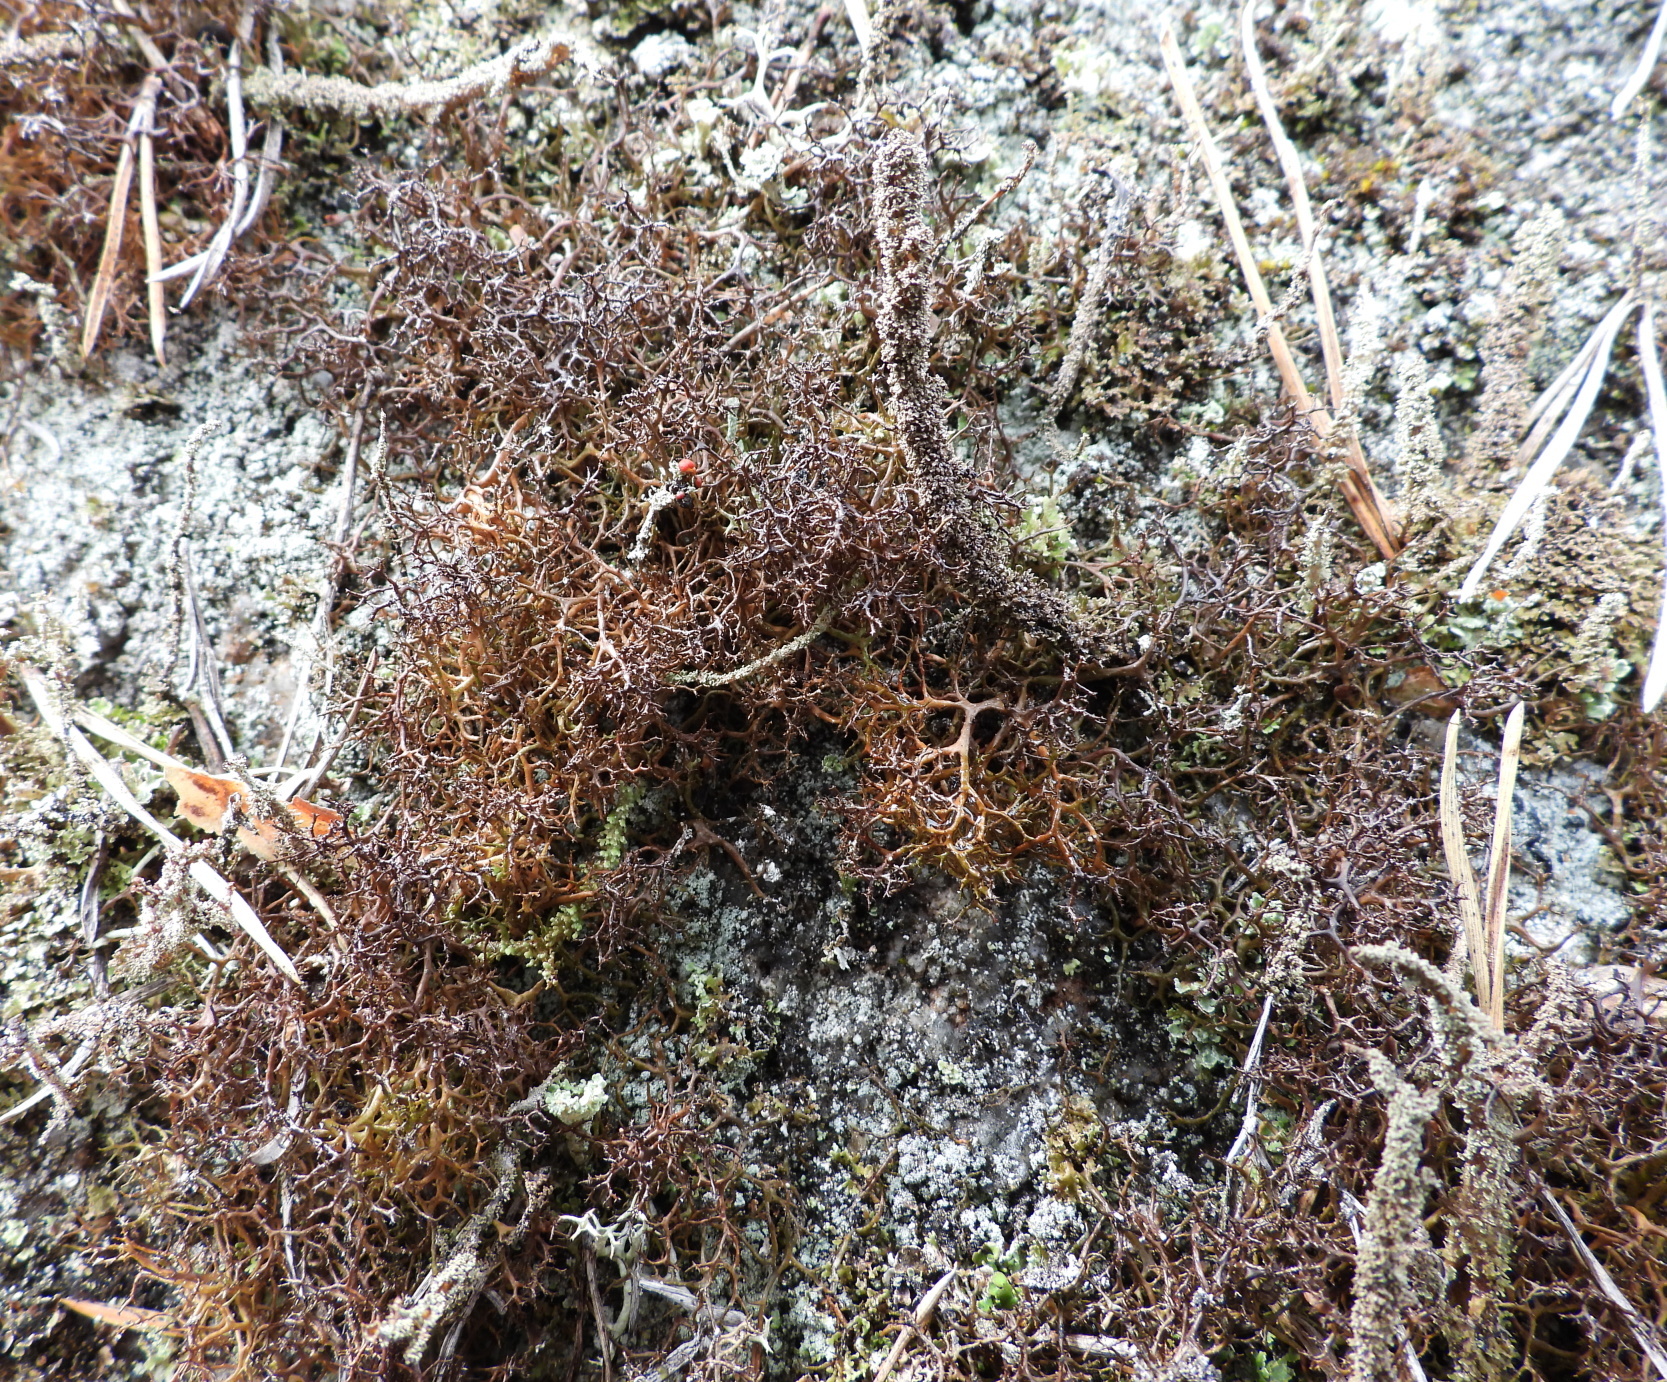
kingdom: Fungi
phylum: Ascomycota
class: Lecanoromycetes
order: Lecanorales
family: Parmeliaceae
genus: Cetraria
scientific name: Cetraria muricata
